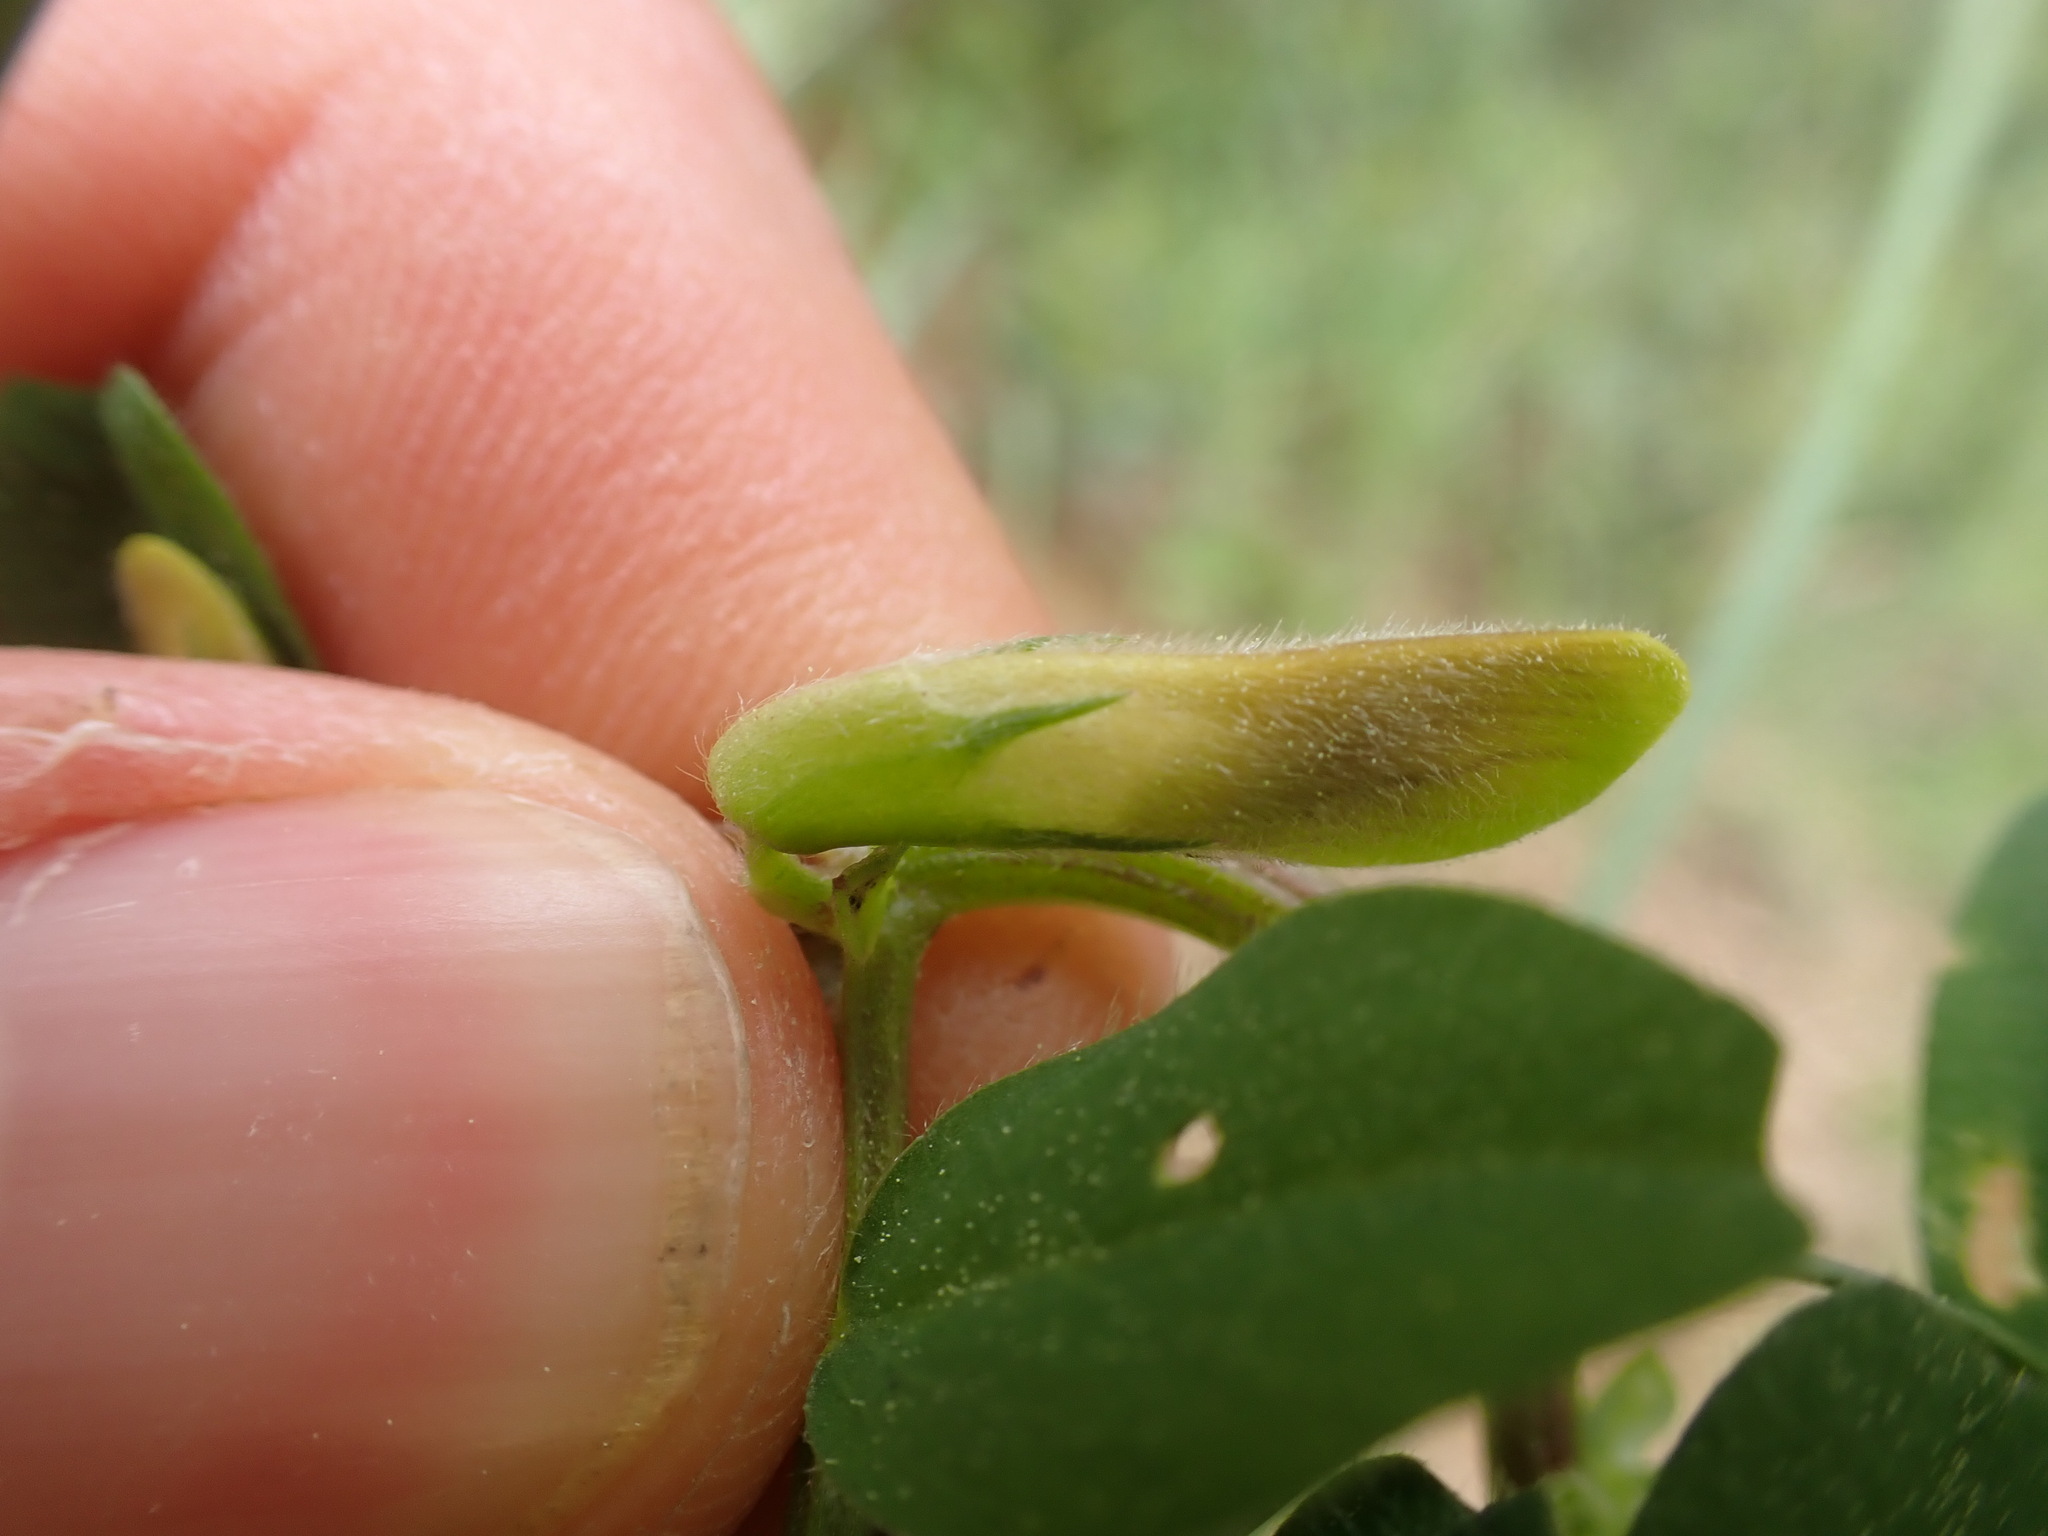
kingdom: Plantae
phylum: Tracheophyta
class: Magnoliopsida
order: Fabales
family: Fabaceae
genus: Vicia
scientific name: Vicia hybrida
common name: Hairy yellow vetch
